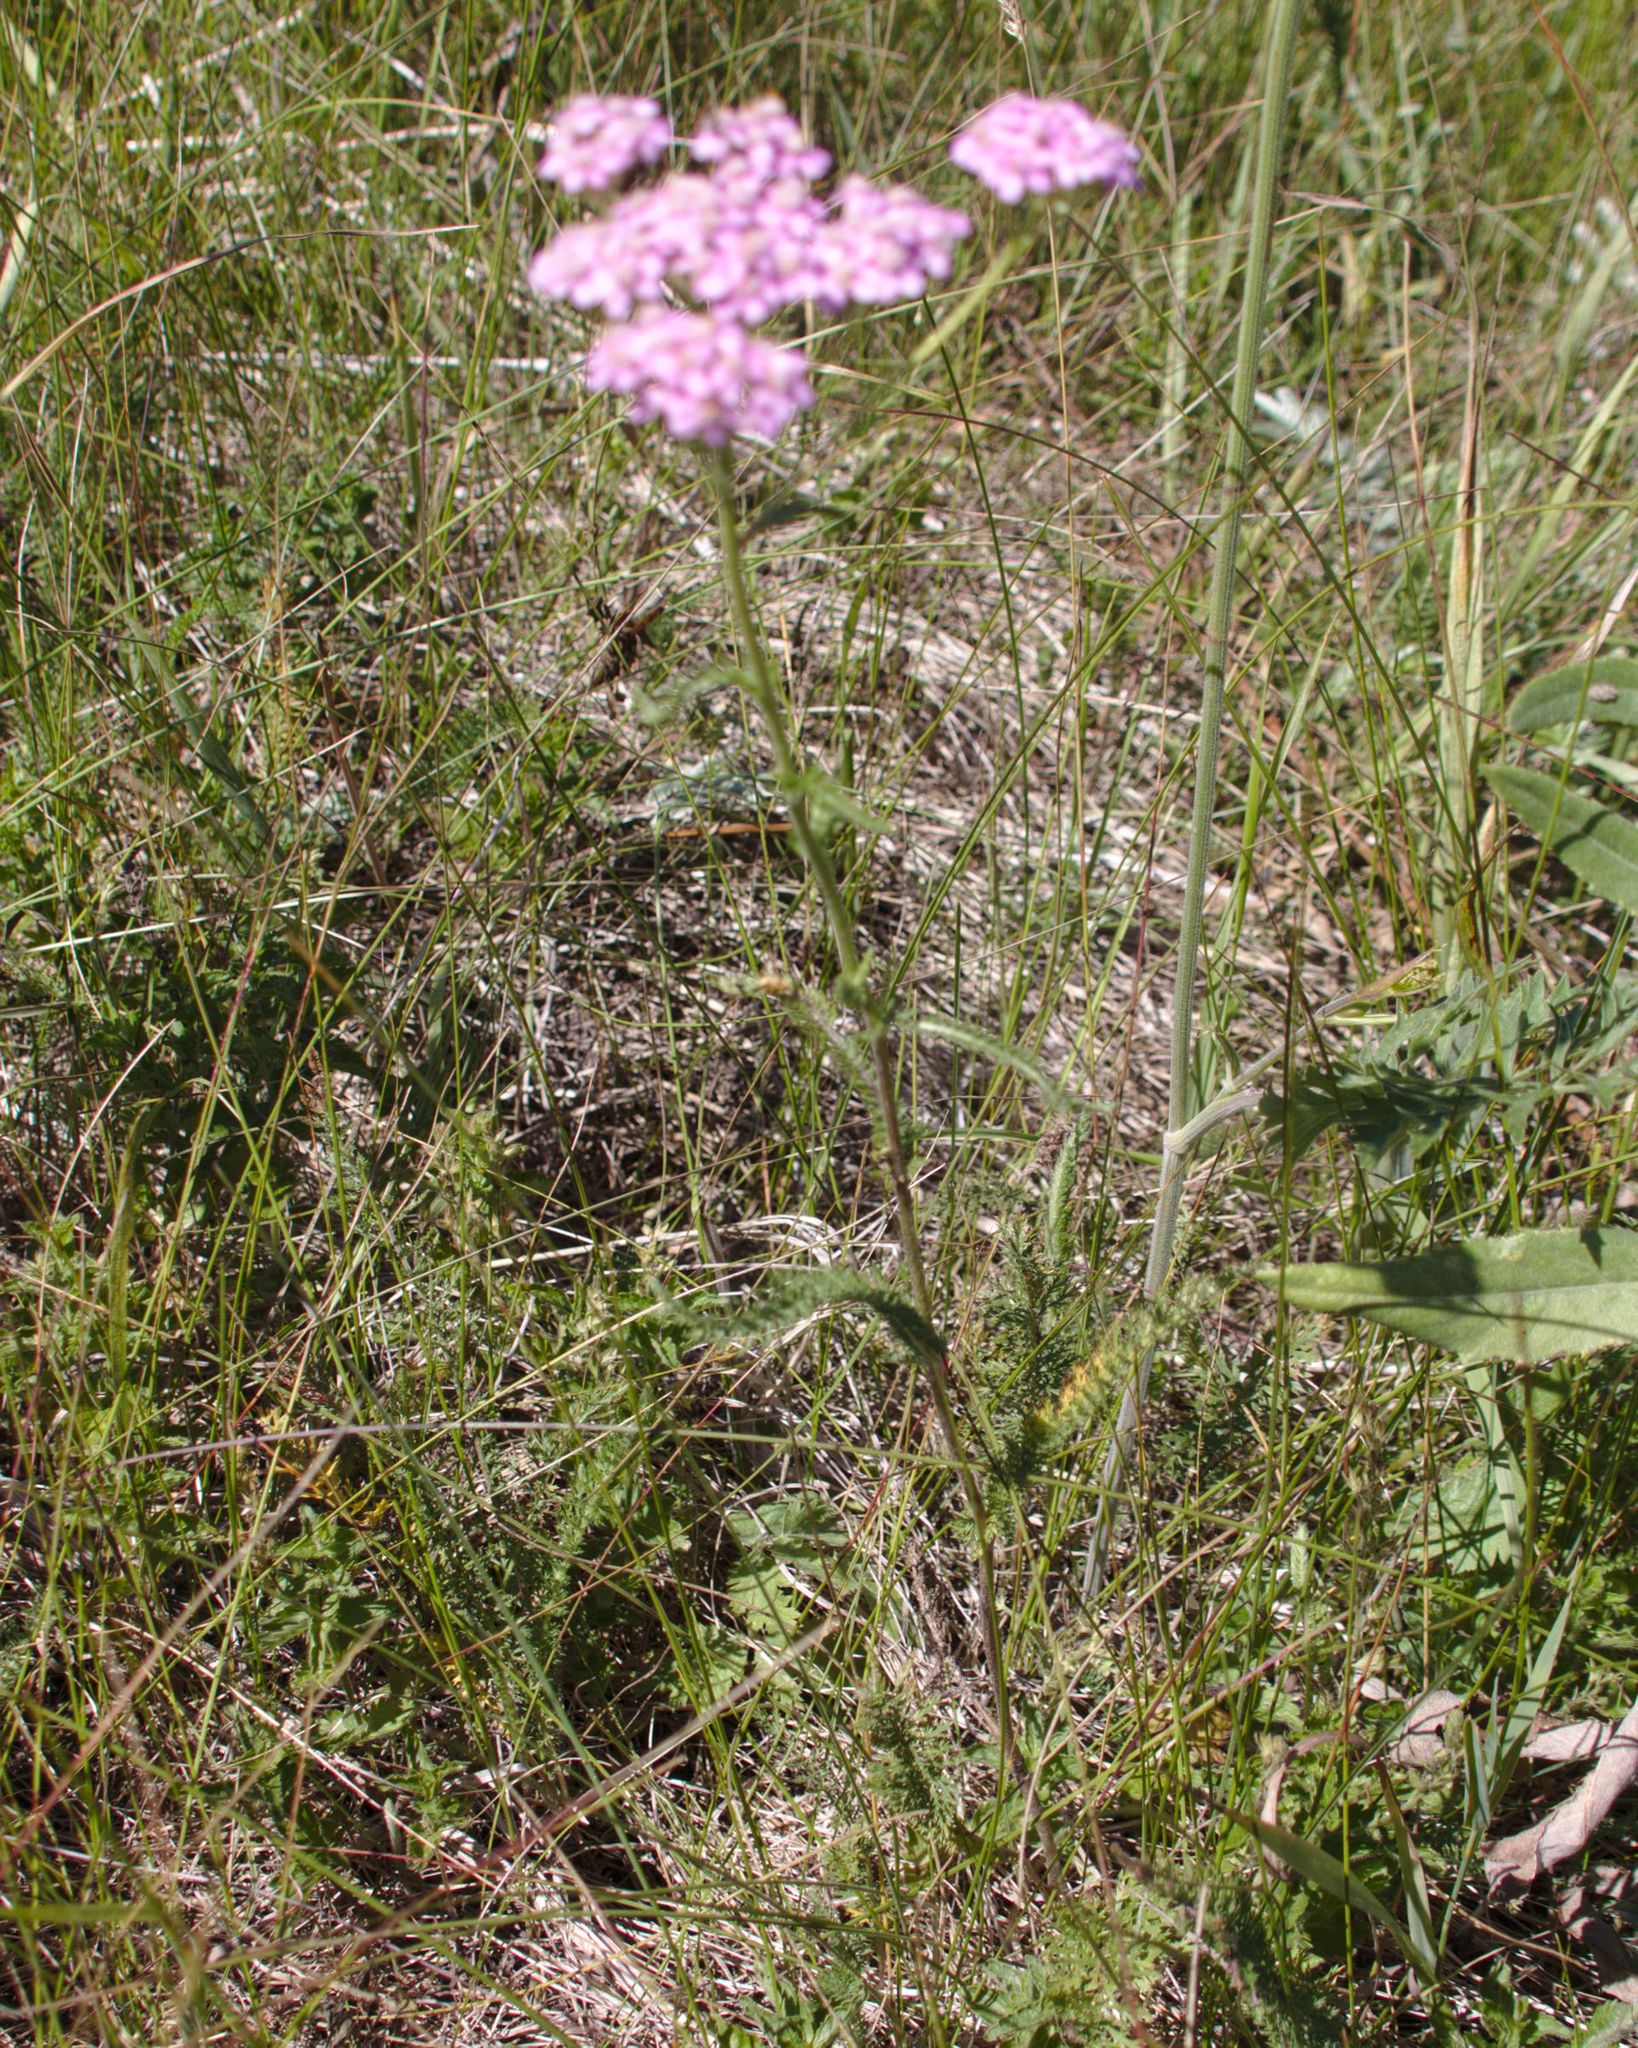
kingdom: Plantae
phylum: Tracheophyta
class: Magnoliopsida
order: Asterales
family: Asteraceae
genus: Achillea
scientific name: Achillea asiatica
